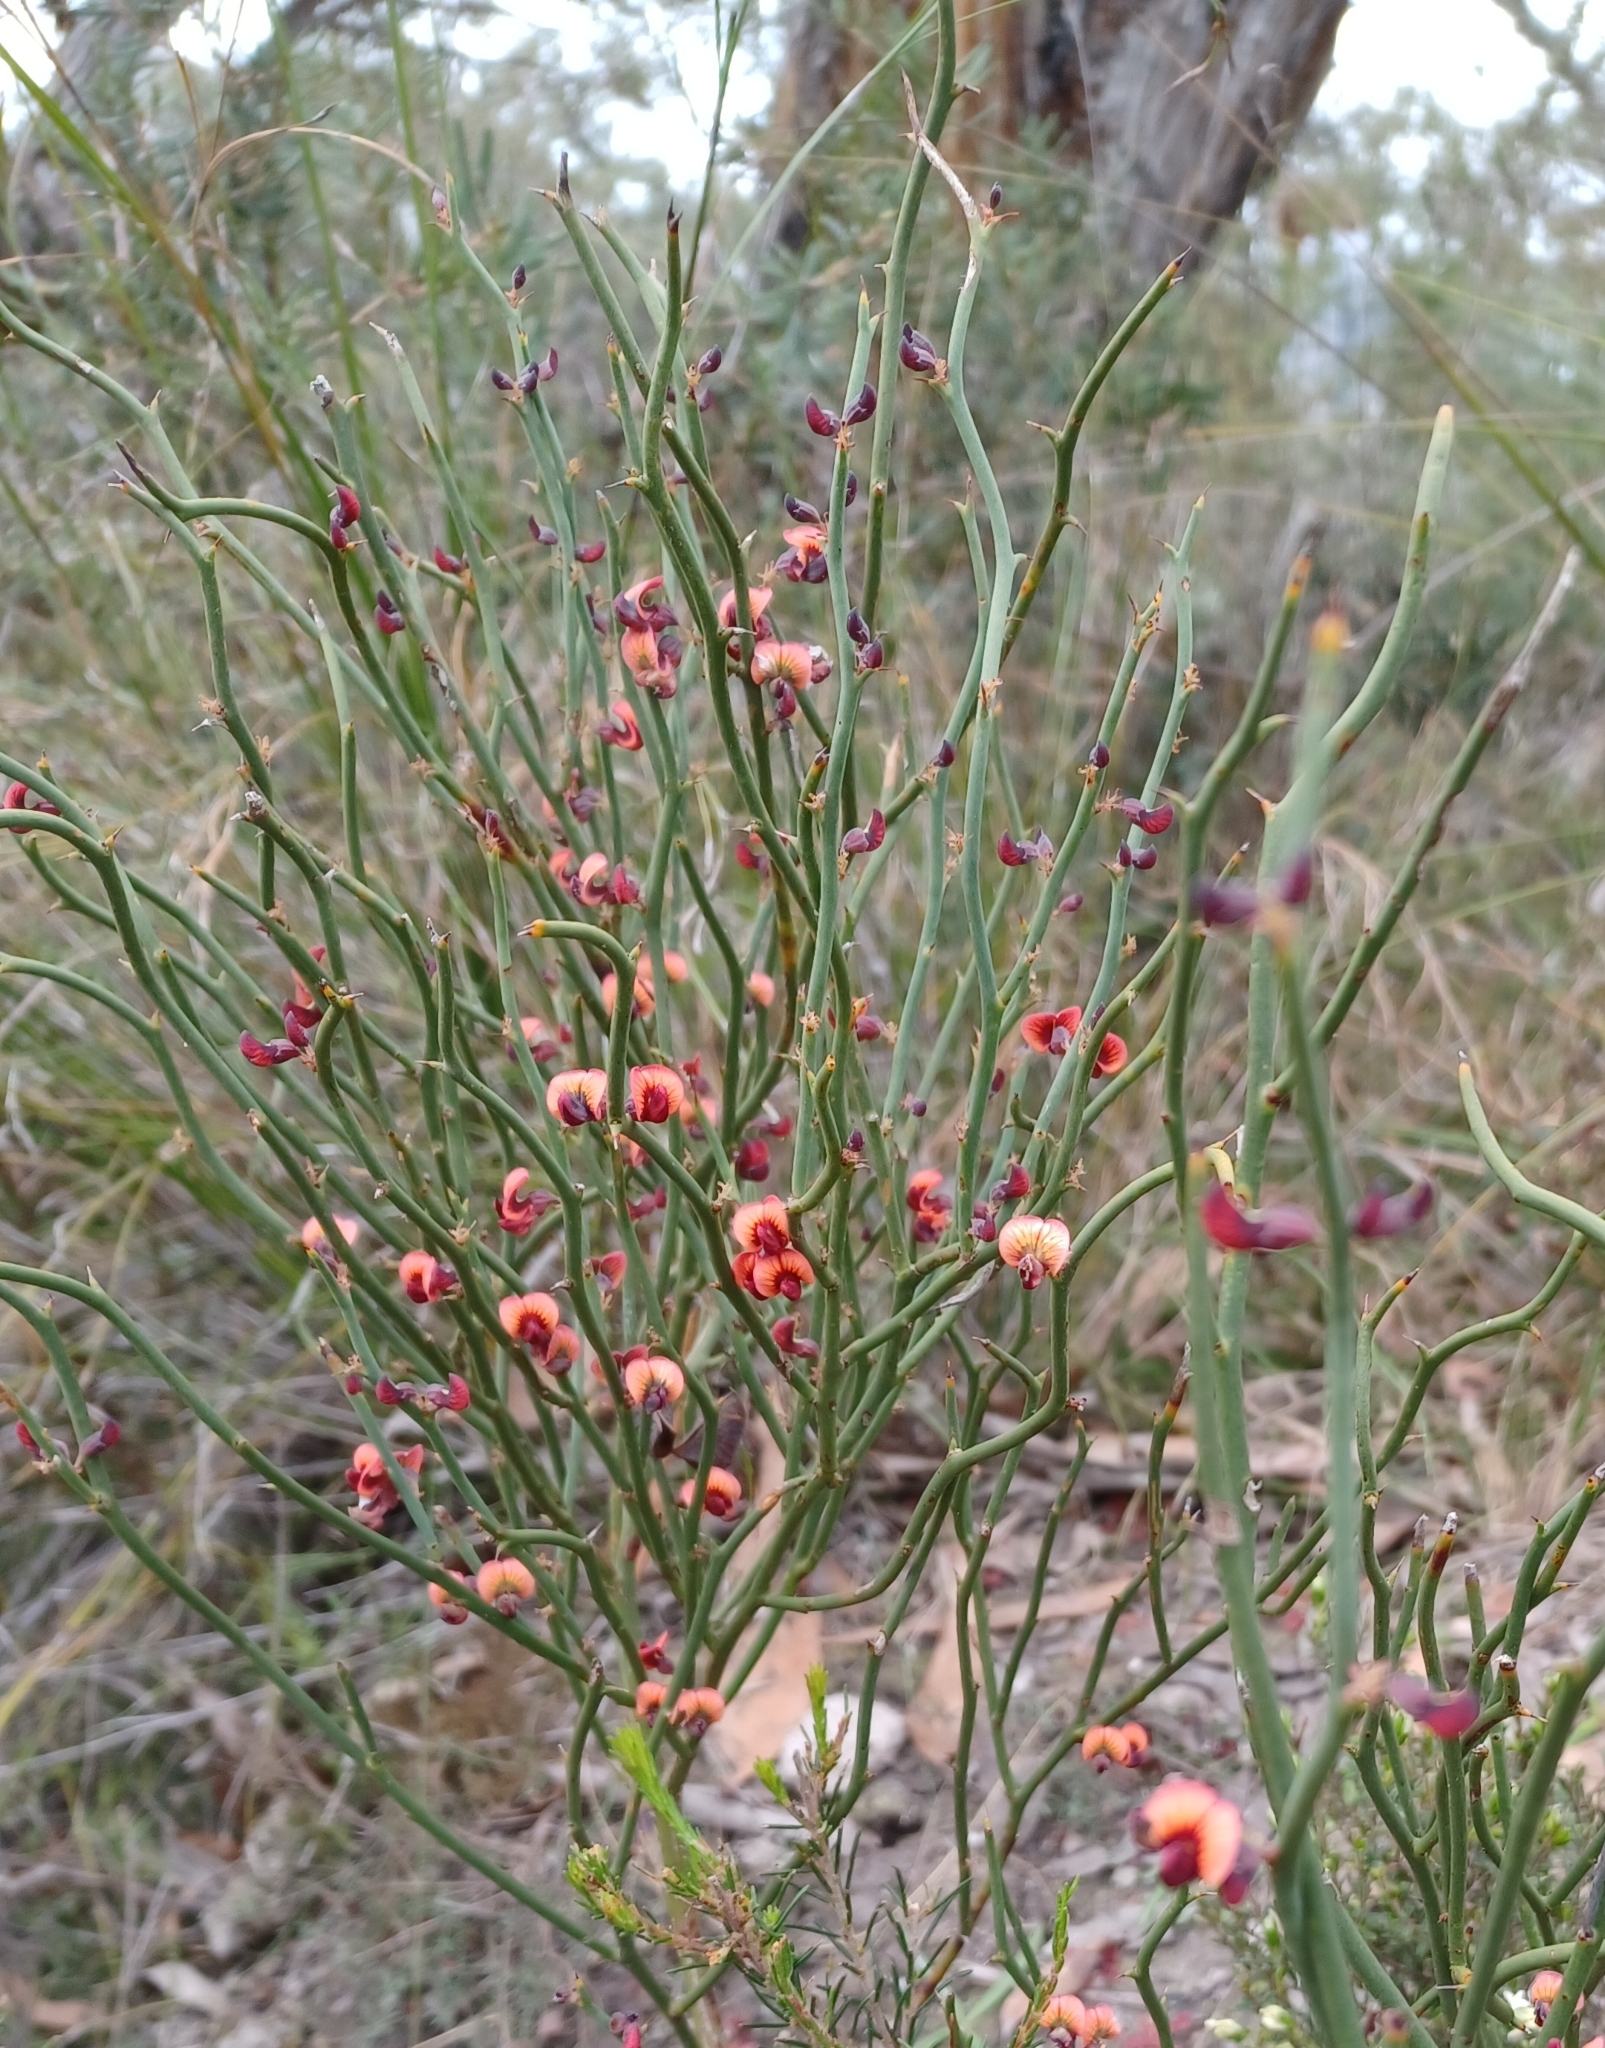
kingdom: Plantae
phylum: Tracheophyta
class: Magnoliopsida
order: Fabales
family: Fabaceae
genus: Daviesia
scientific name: Daviesia brevifolia
